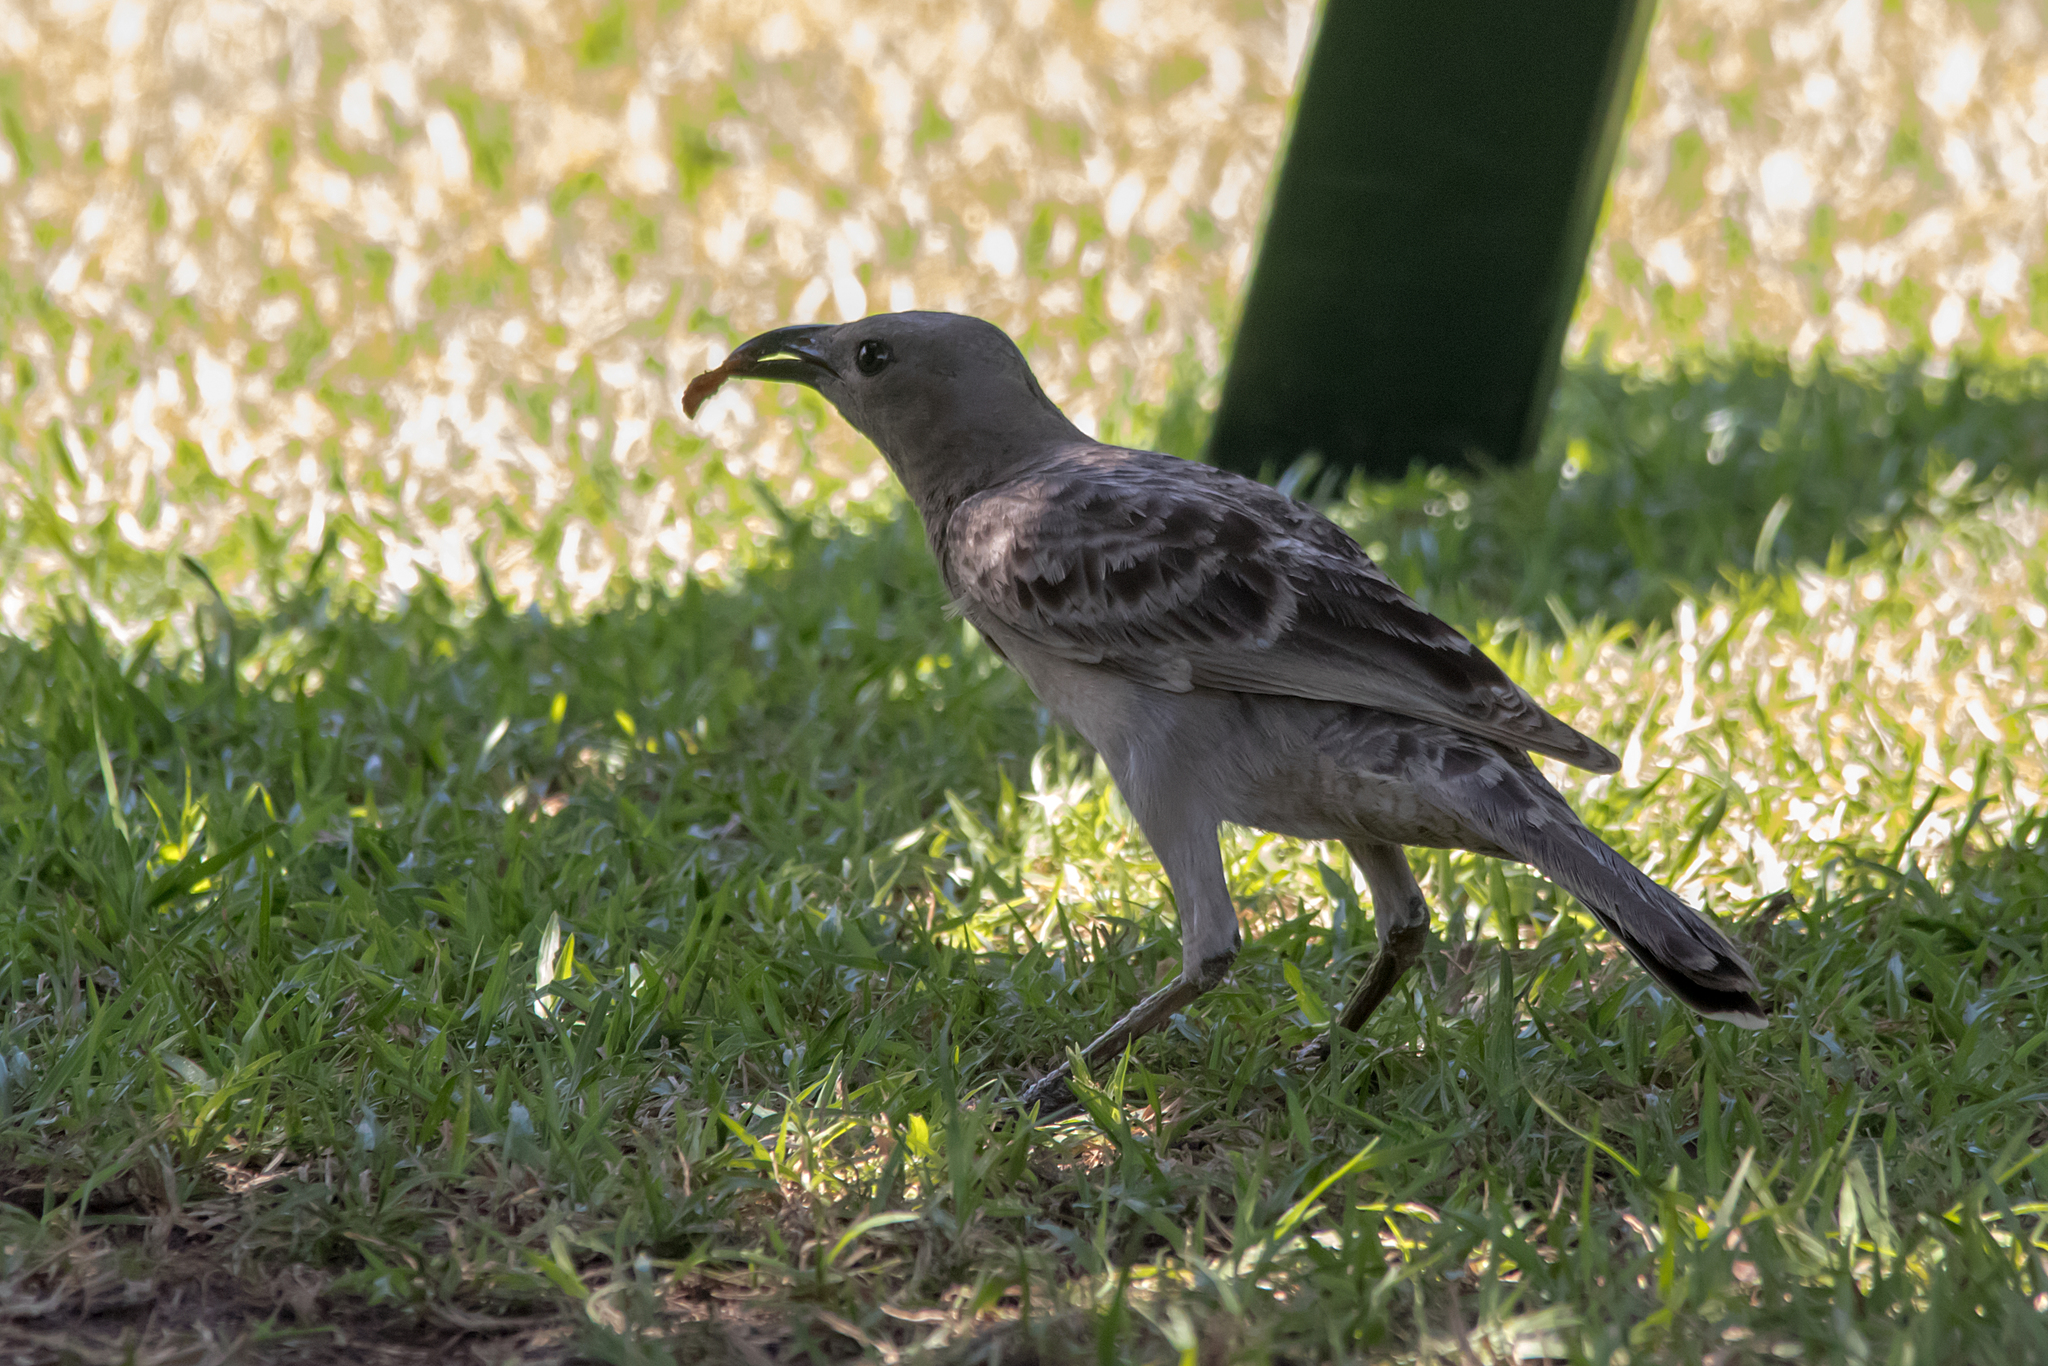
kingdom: Animalia
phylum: Chordata
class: Aves
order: Passeriformes
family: Ptilonorhynchidae
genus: Chlamydera
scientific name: Chlamydera nuchalis
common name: Great bowerbird
